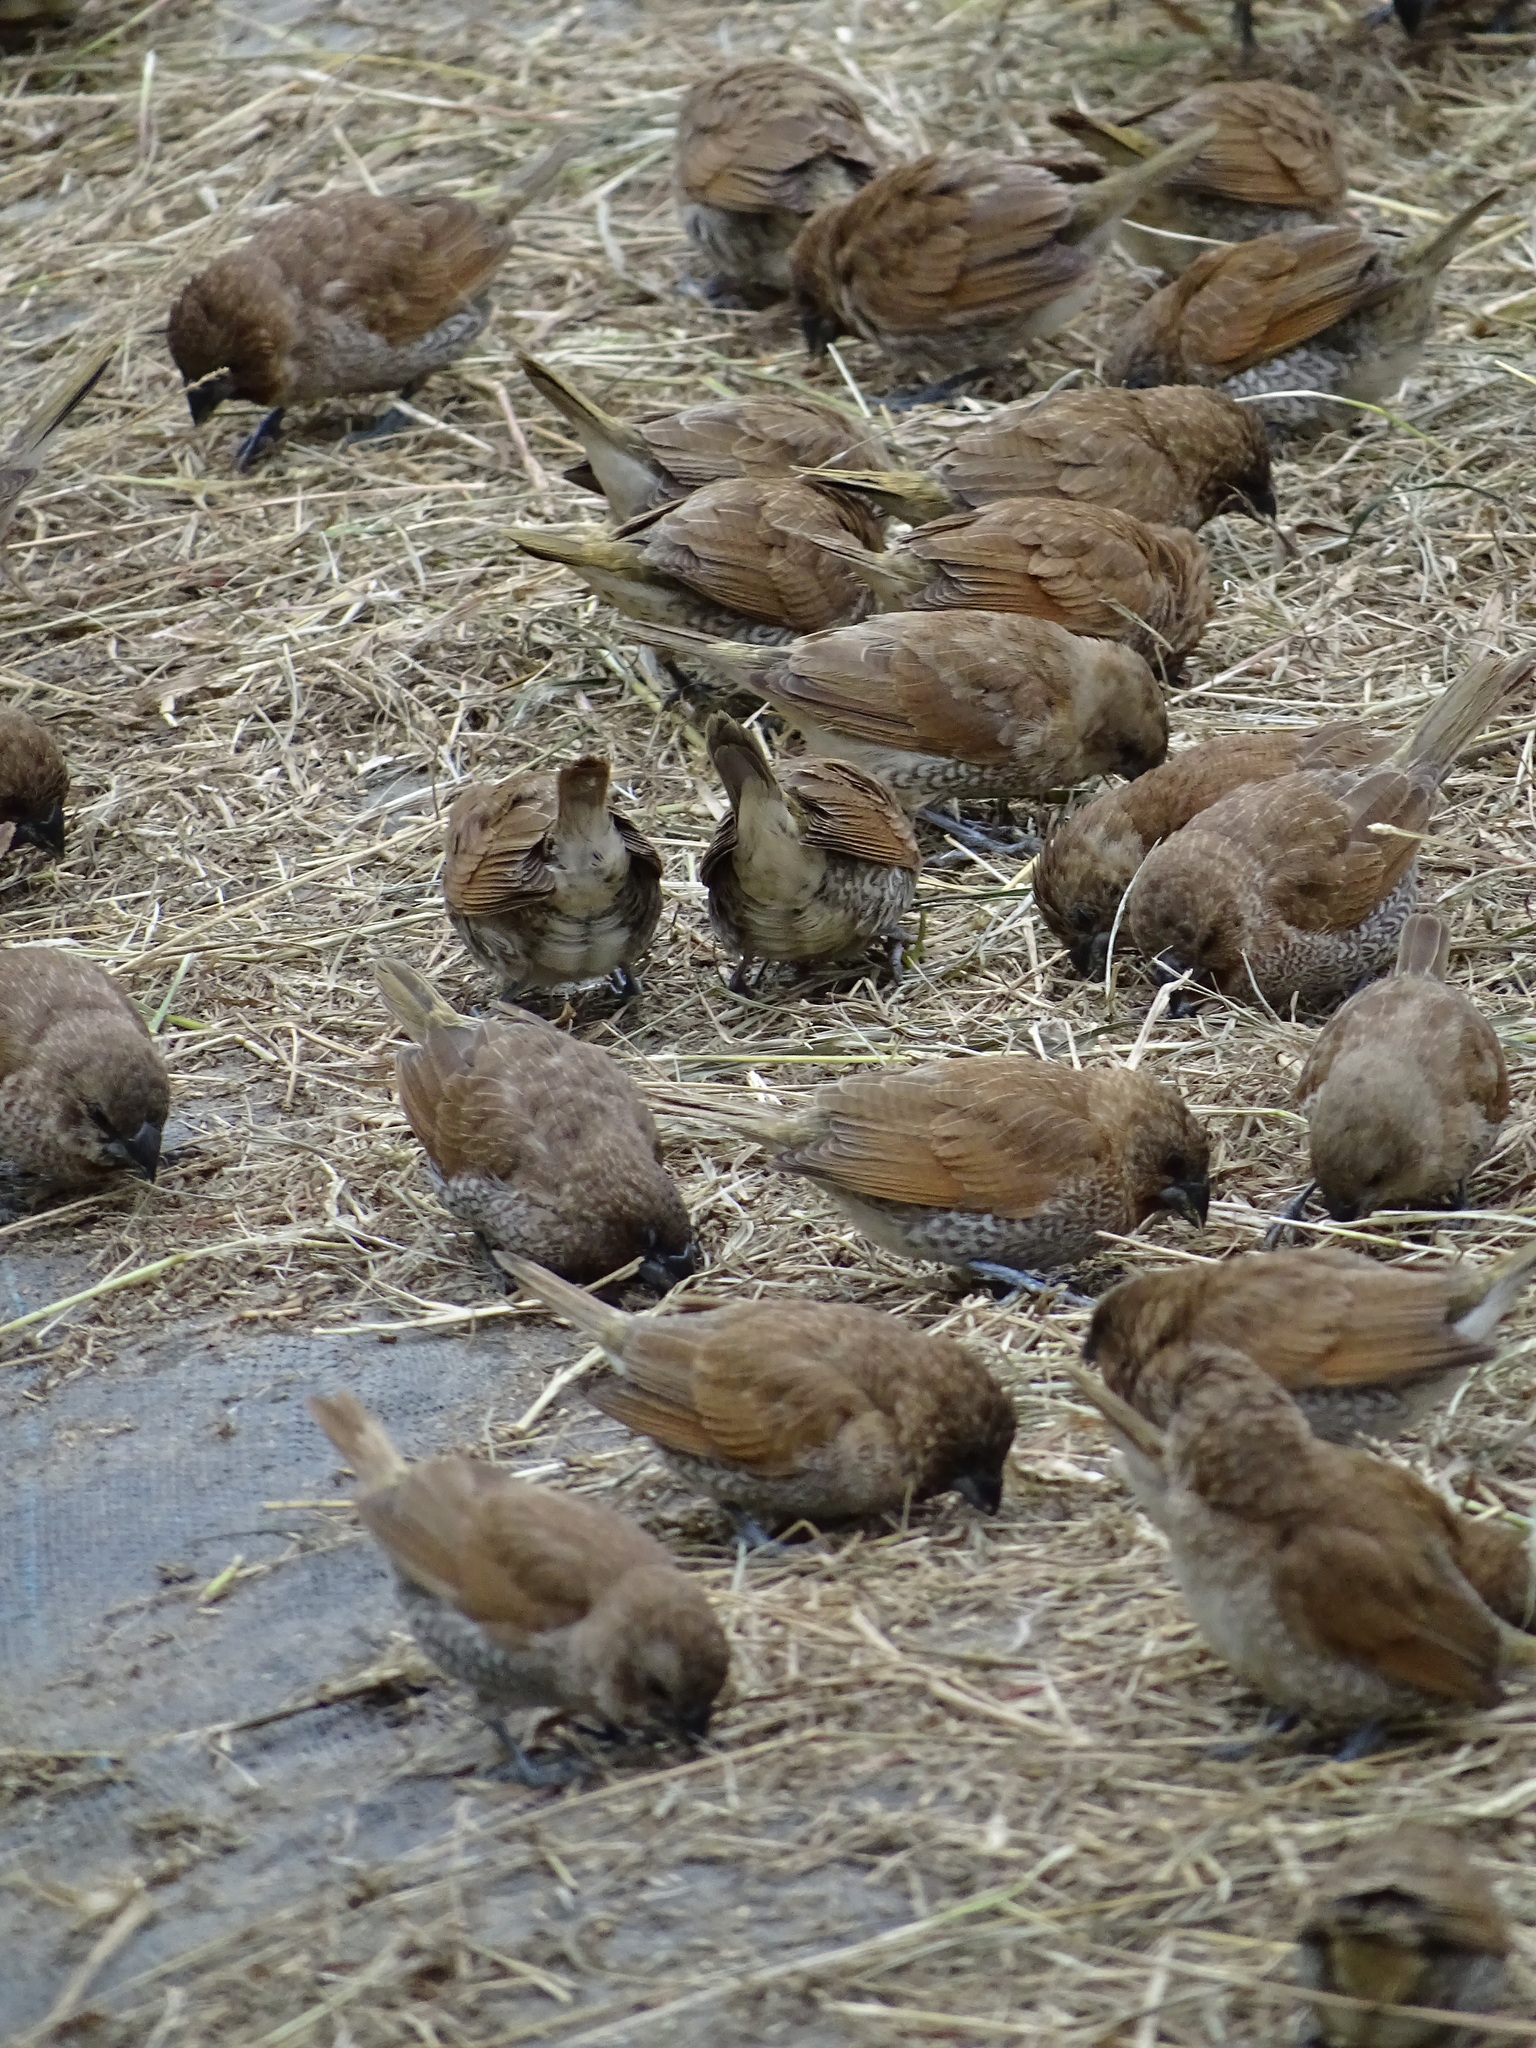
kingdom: Animalia
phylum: Chordata
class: Aves
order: Passeriformes
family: Estrildidae
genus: Lonchura
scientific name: Lonchura punctulata
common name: Scaly-breasted munia
